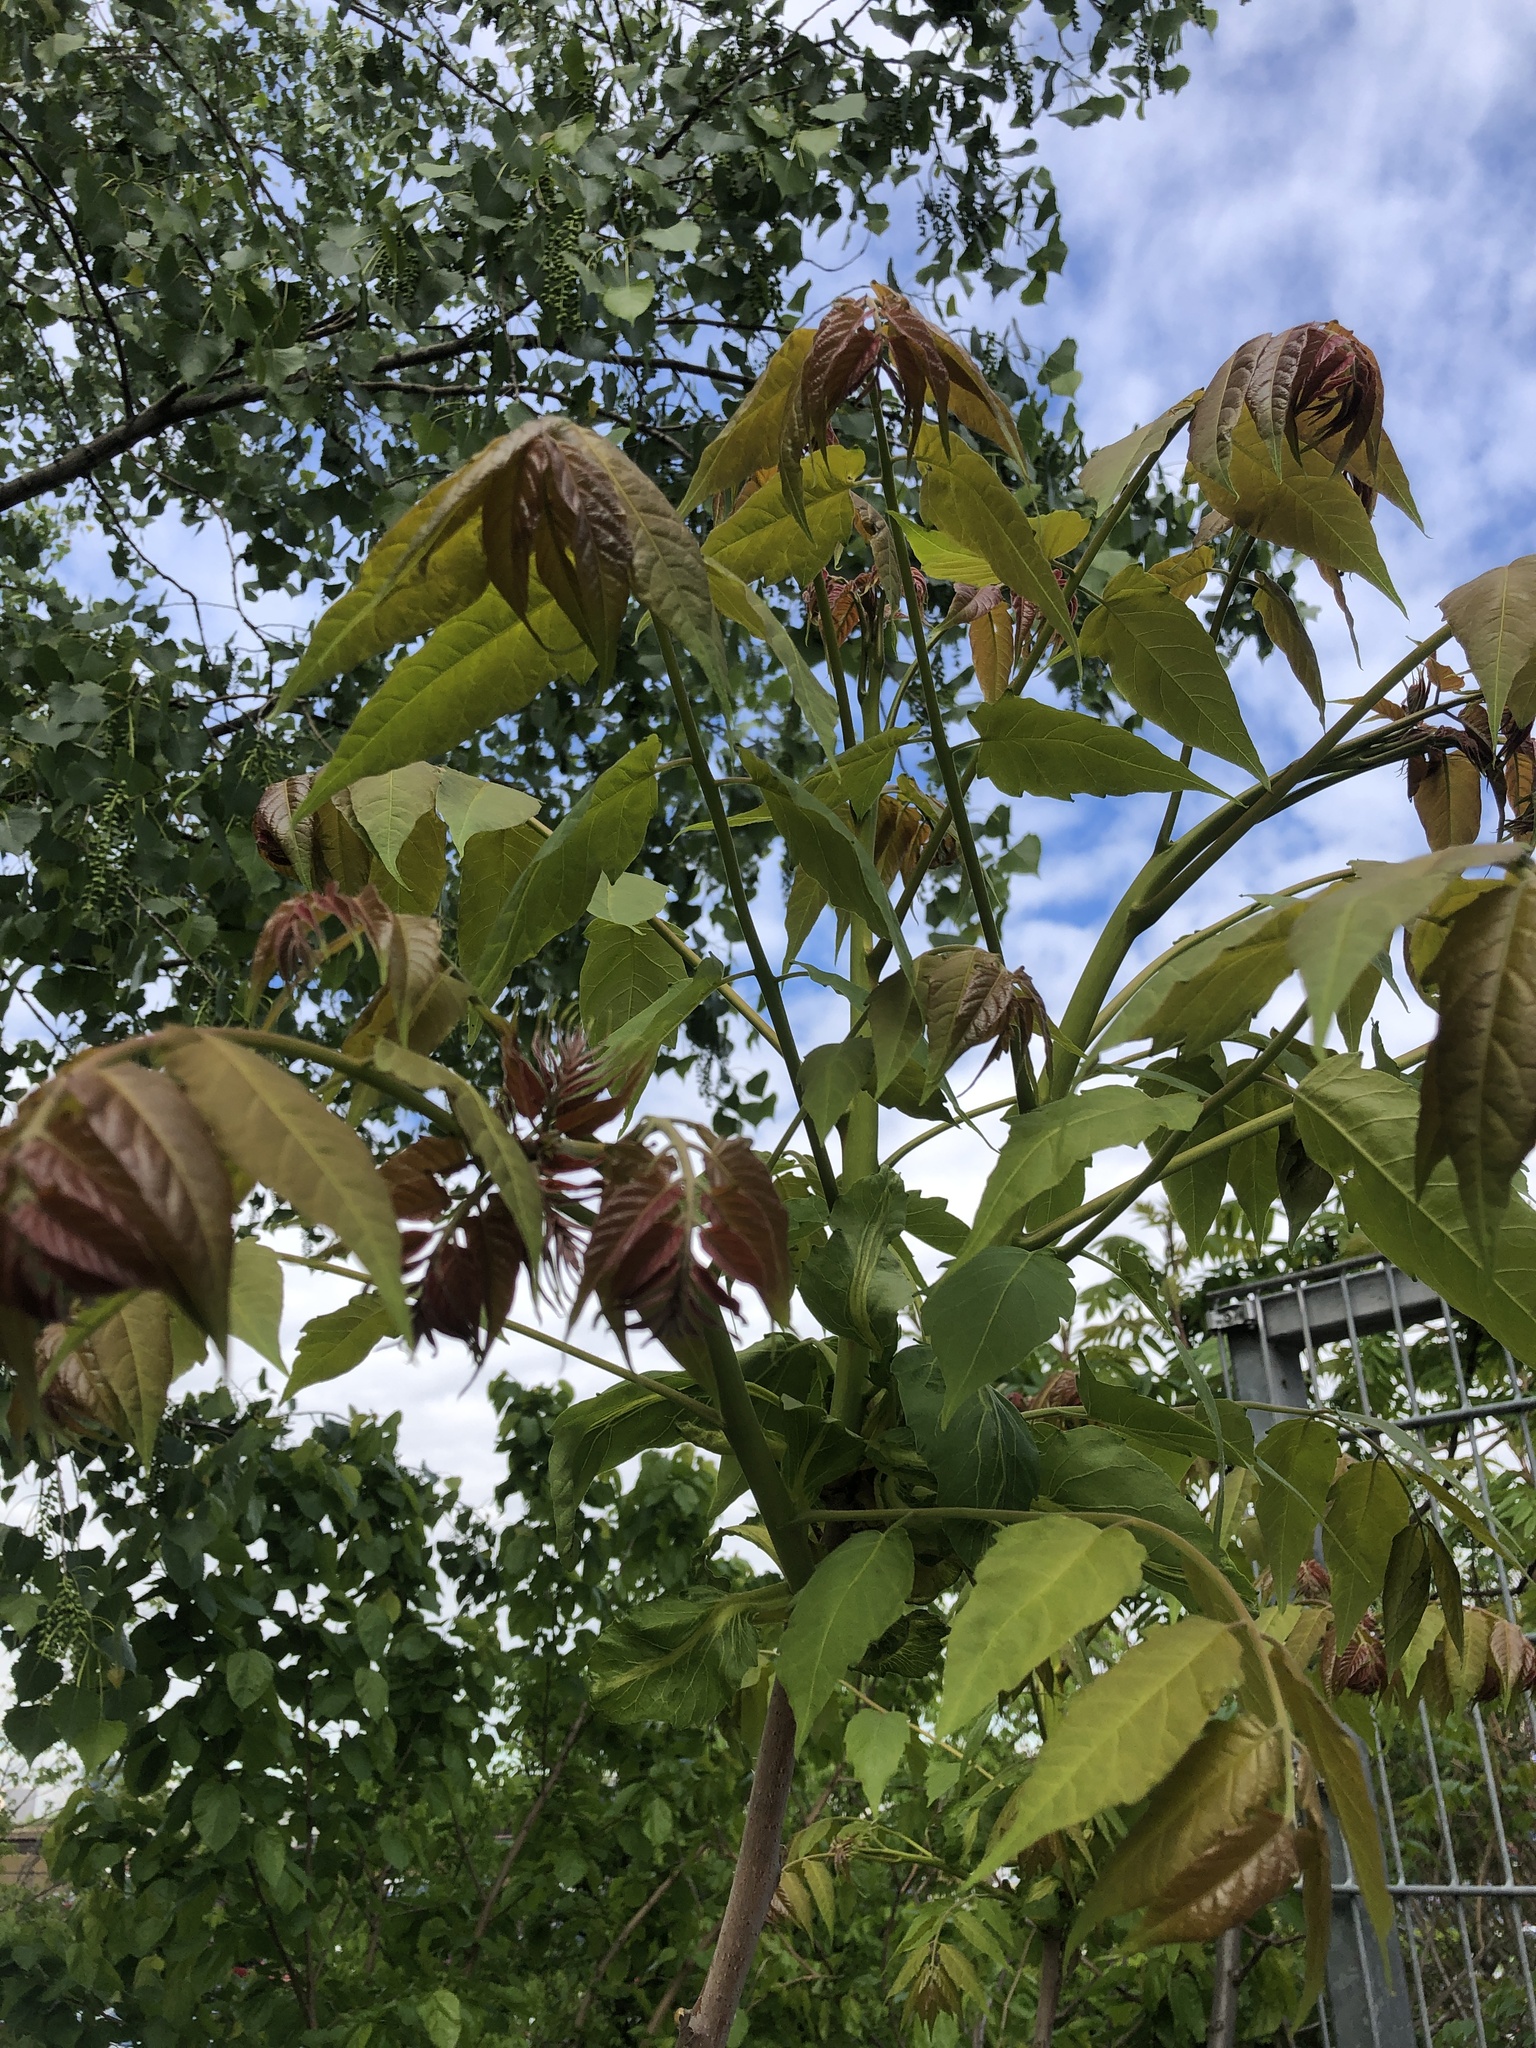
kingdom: Plantae
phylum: Tracheophyta
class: Magnoliopsida
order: Sapindales
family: Simaroubaceae
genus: Ailanthus
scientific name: Ailanthus altissima
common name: Tree-of-heaven
